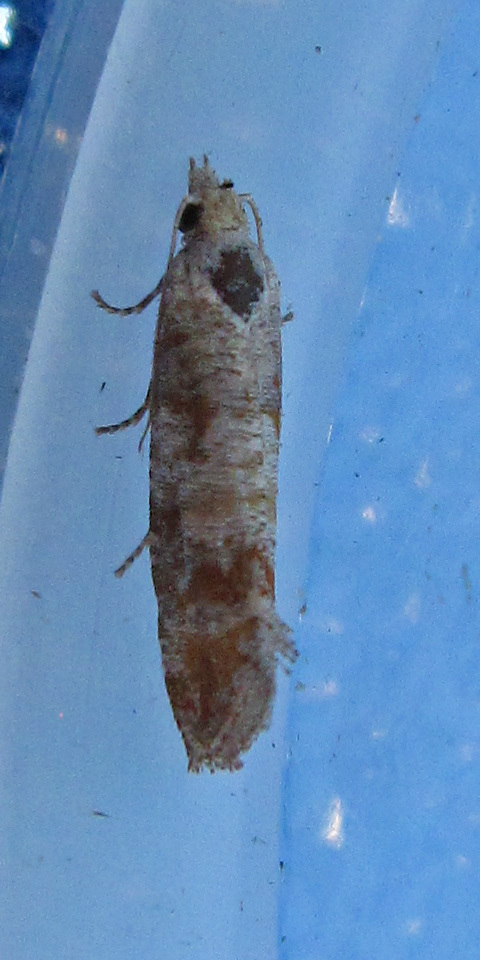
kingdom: Animalia
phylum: Arthropoda
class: Insecta
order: Lepidoptera
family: Tortricidae
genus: Rhyacionia
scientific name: Rhyacionia rigidana
